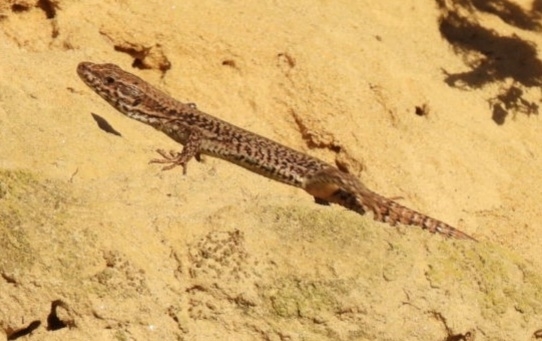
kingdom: Animalia
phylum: Chordata
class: Squamata
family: Lacertidae
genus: Podarcis
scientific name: Podarcis muralis
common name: Common wall lizard
